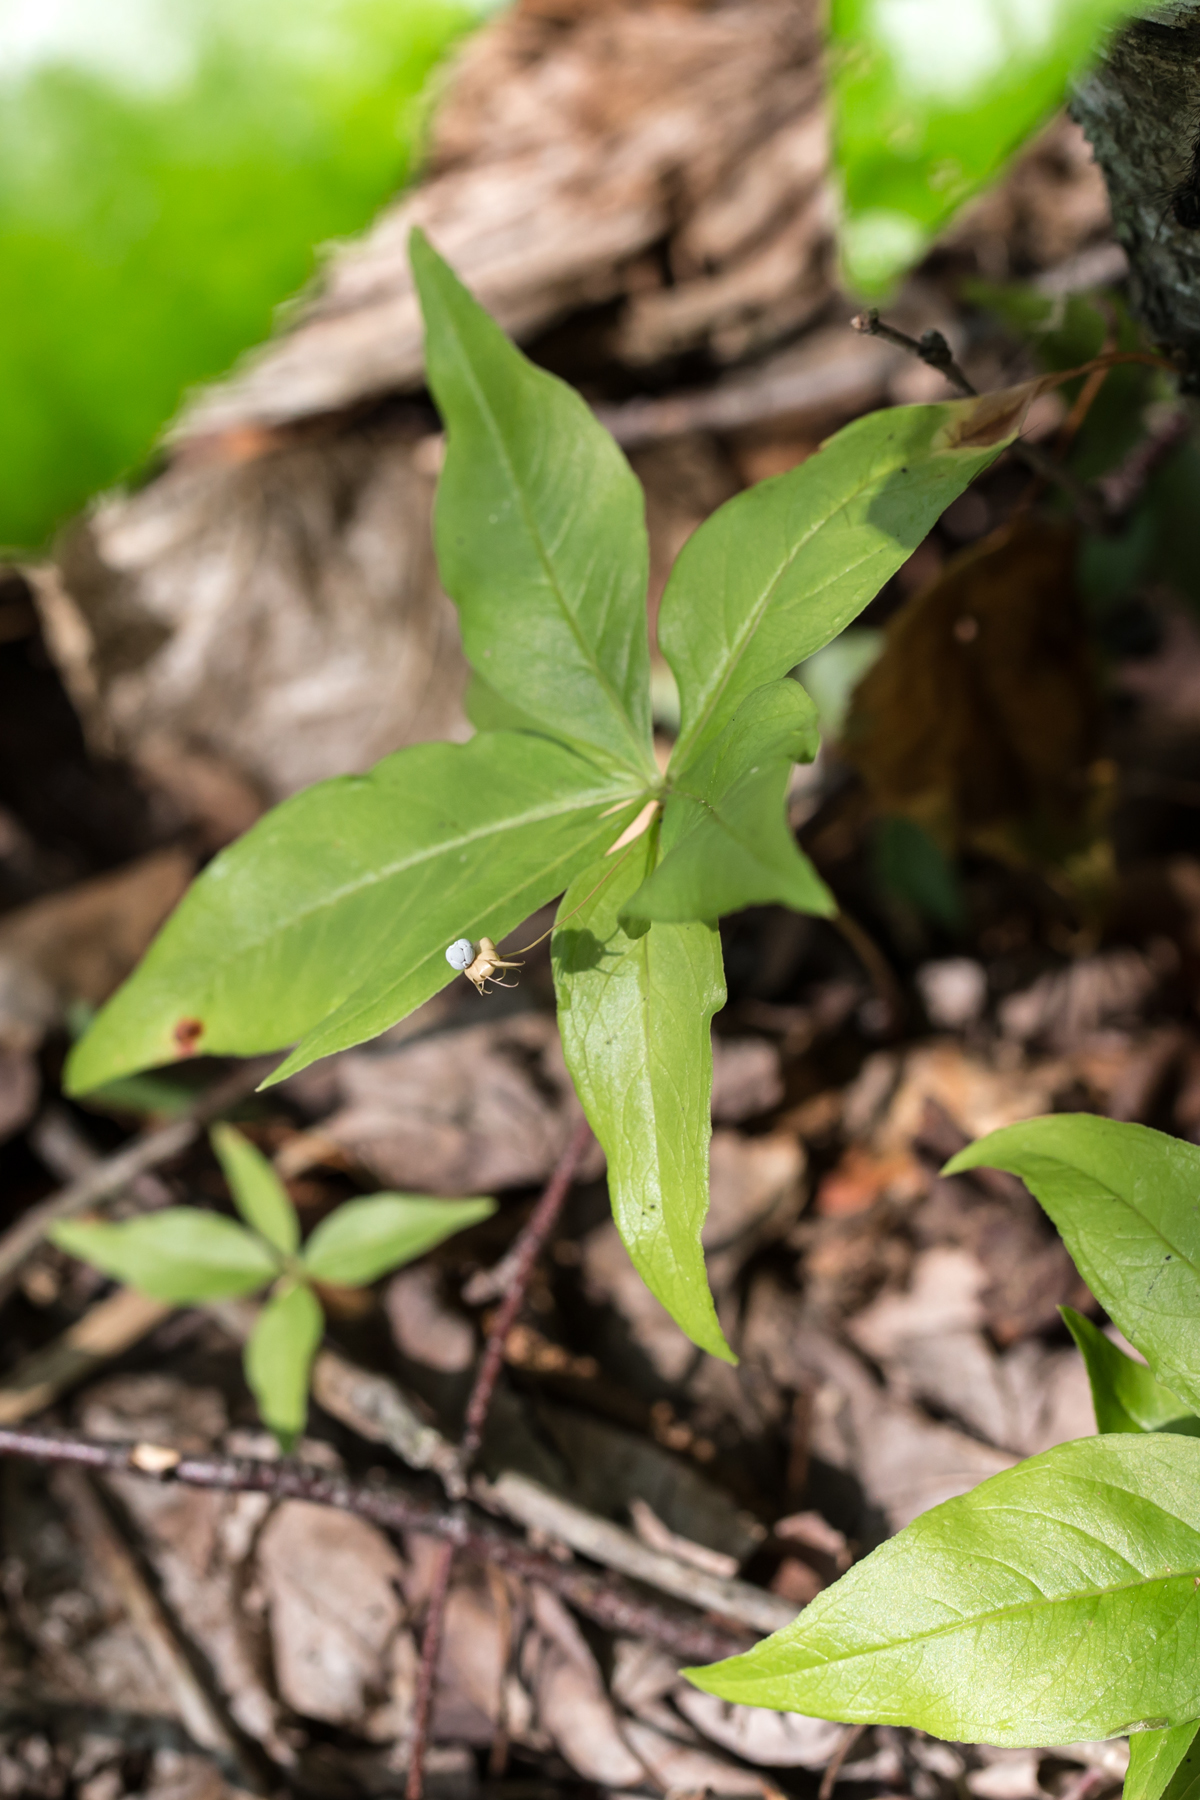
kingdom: Plantae
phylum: Tracheophyta
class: Magnoliopsida
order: Ericales
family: Primulaceae
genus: Lysimachia
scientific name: Lysimachia borealis
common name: American starflower
